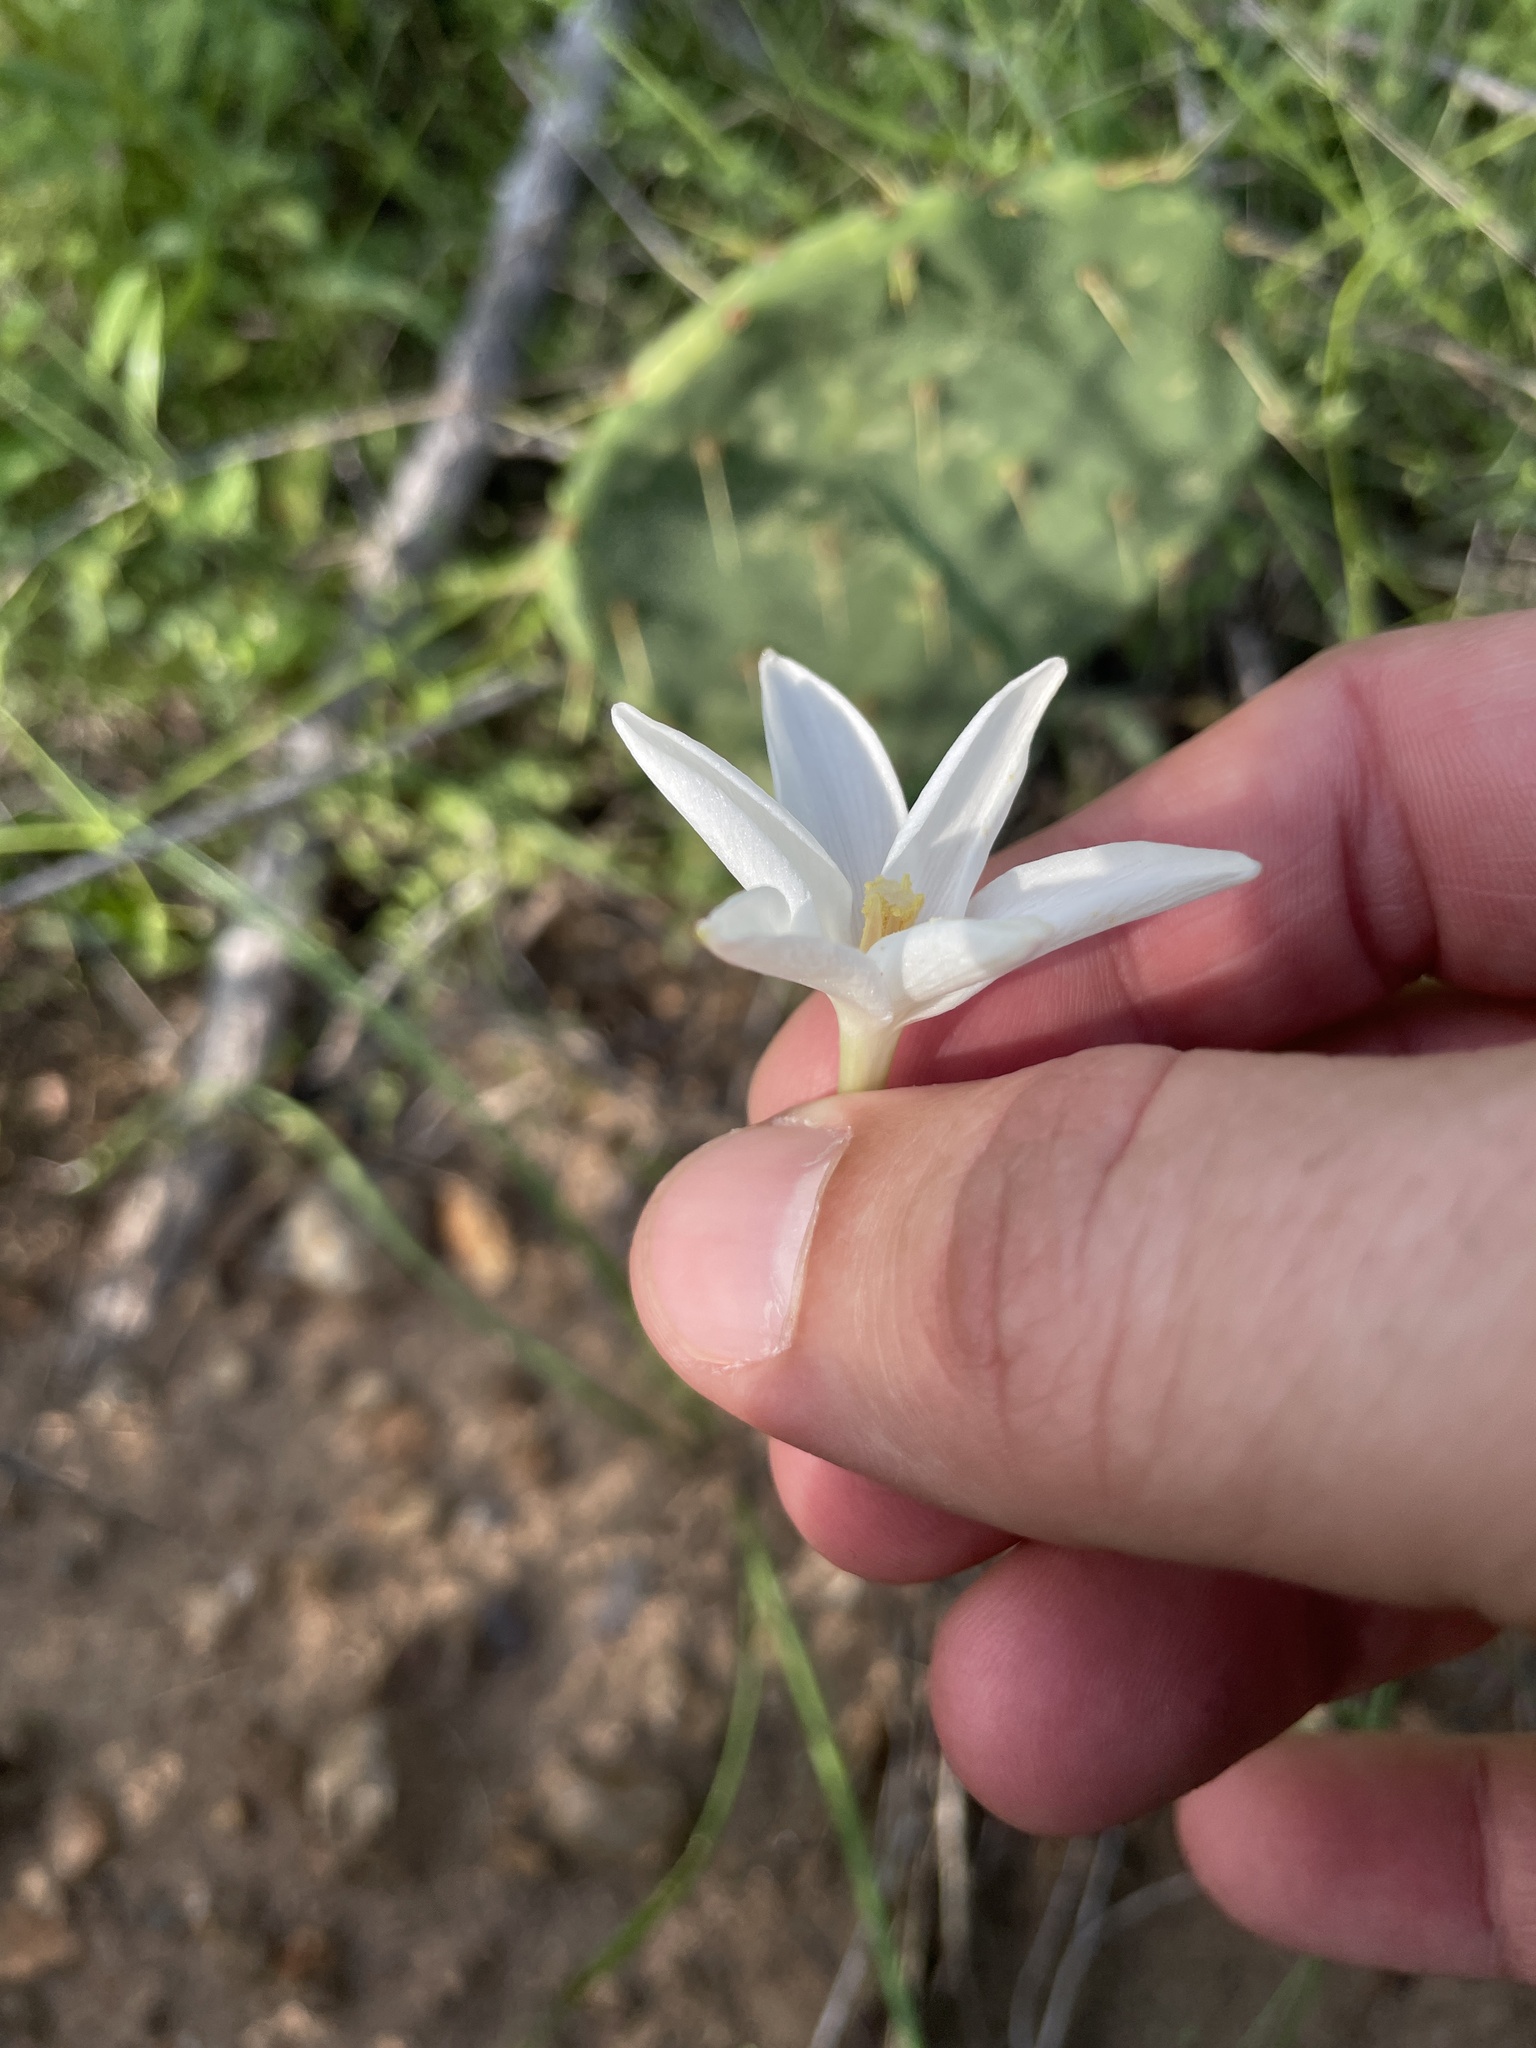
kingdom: Plantae
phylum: Tracheophyta
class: Liliopsida
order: Asparagales
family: Amaryllidaceae
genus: Zephyranthes
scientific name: Zephyranthes chlorosolen
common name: Evening rain-lily
